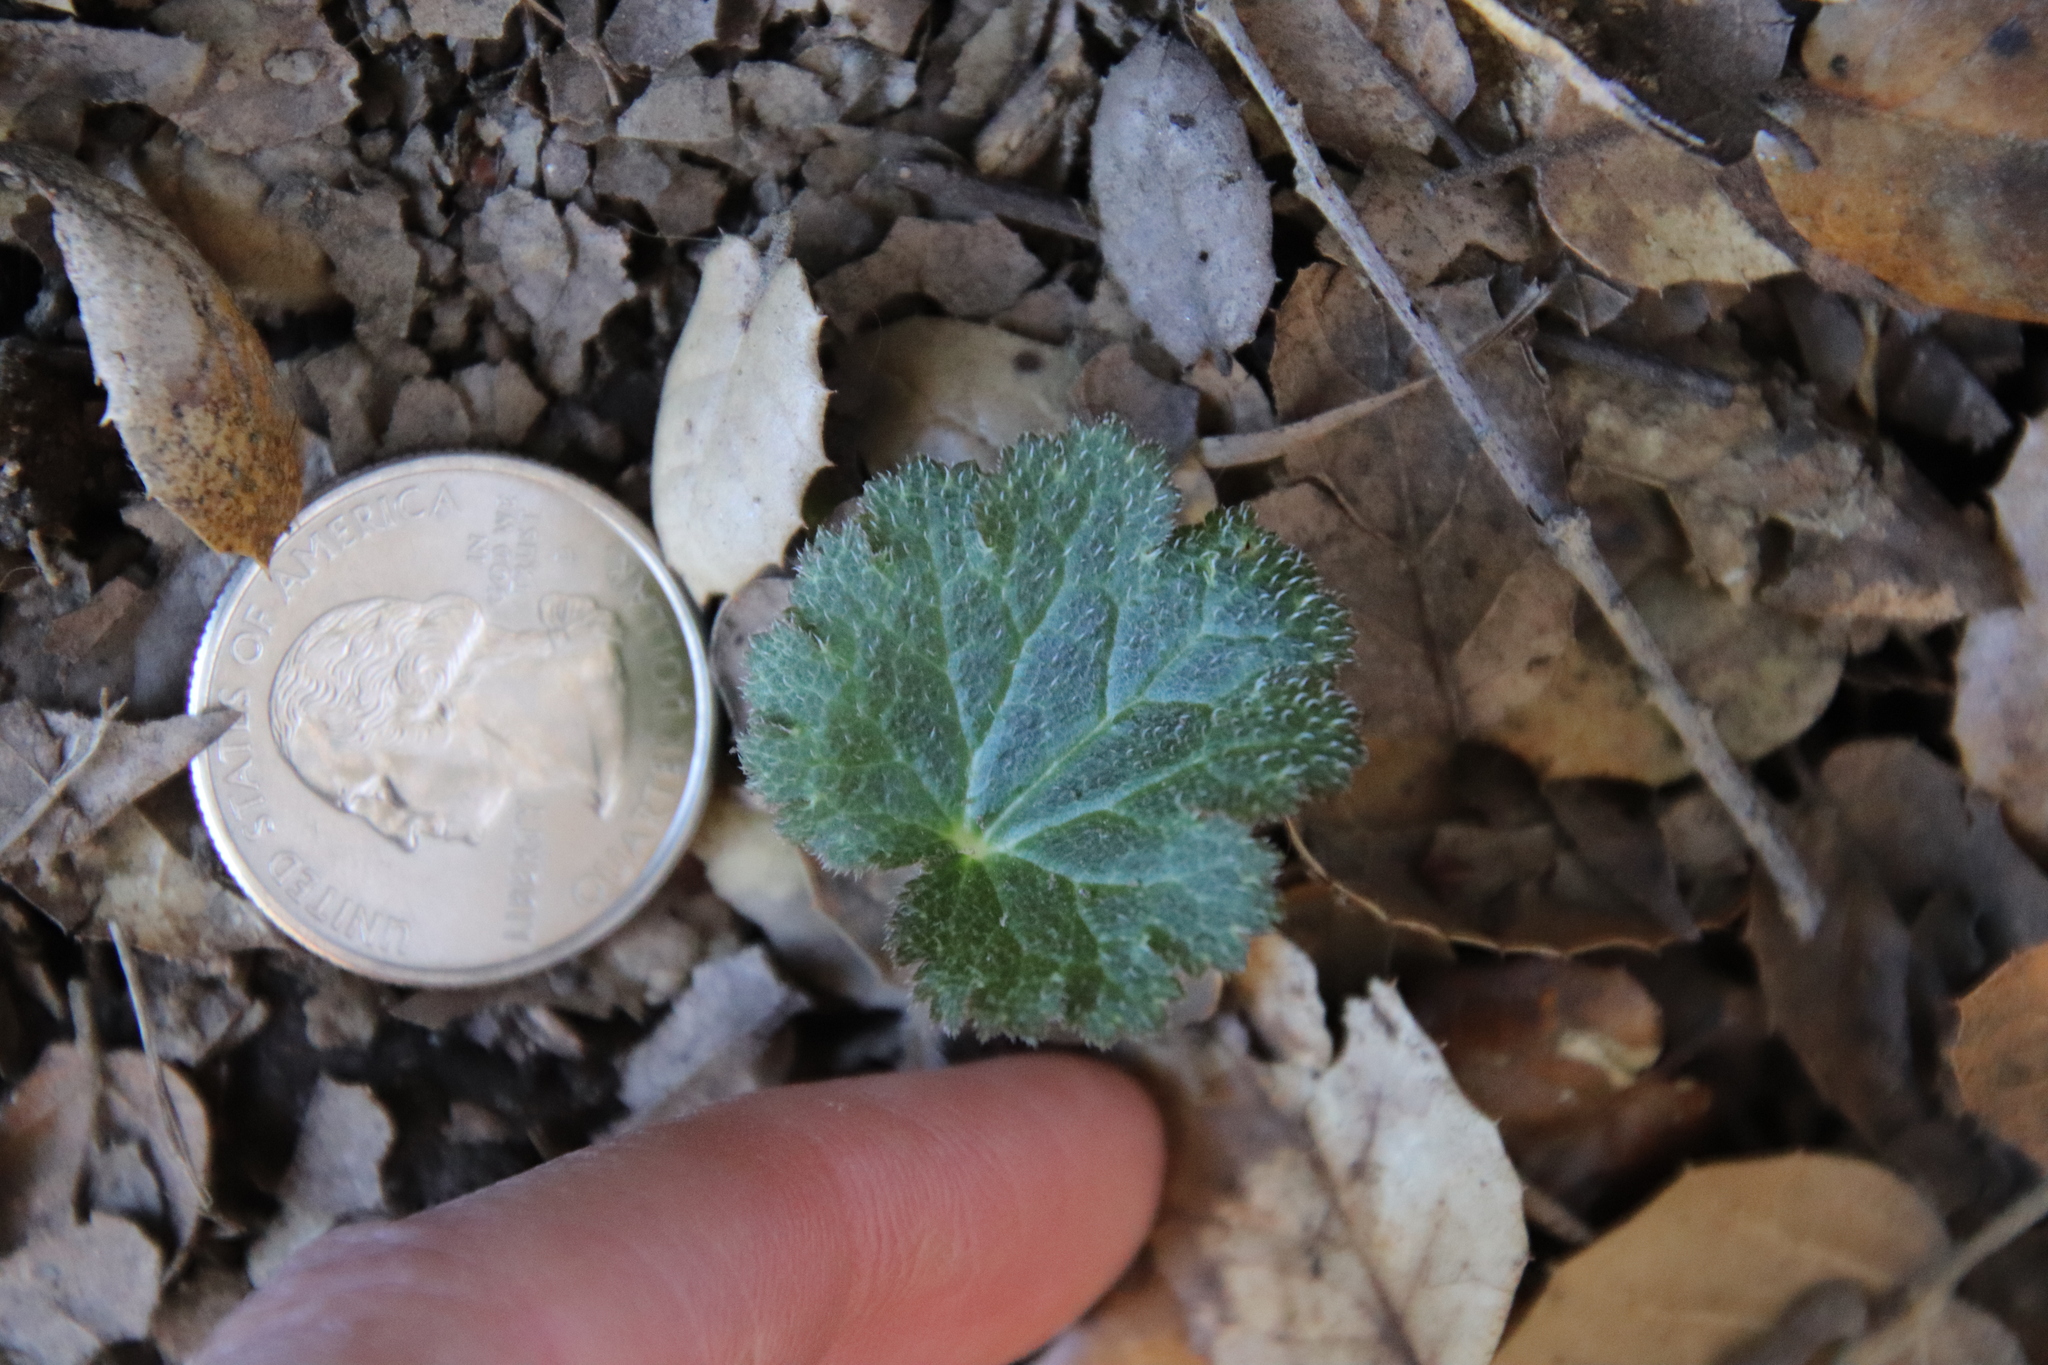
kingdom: Plantae
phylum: Tracheophyta
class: Magnoliopsida
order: Saxifragales
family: Saxifragaceae
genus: Jepsonia
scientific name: Jepsonia parryi
